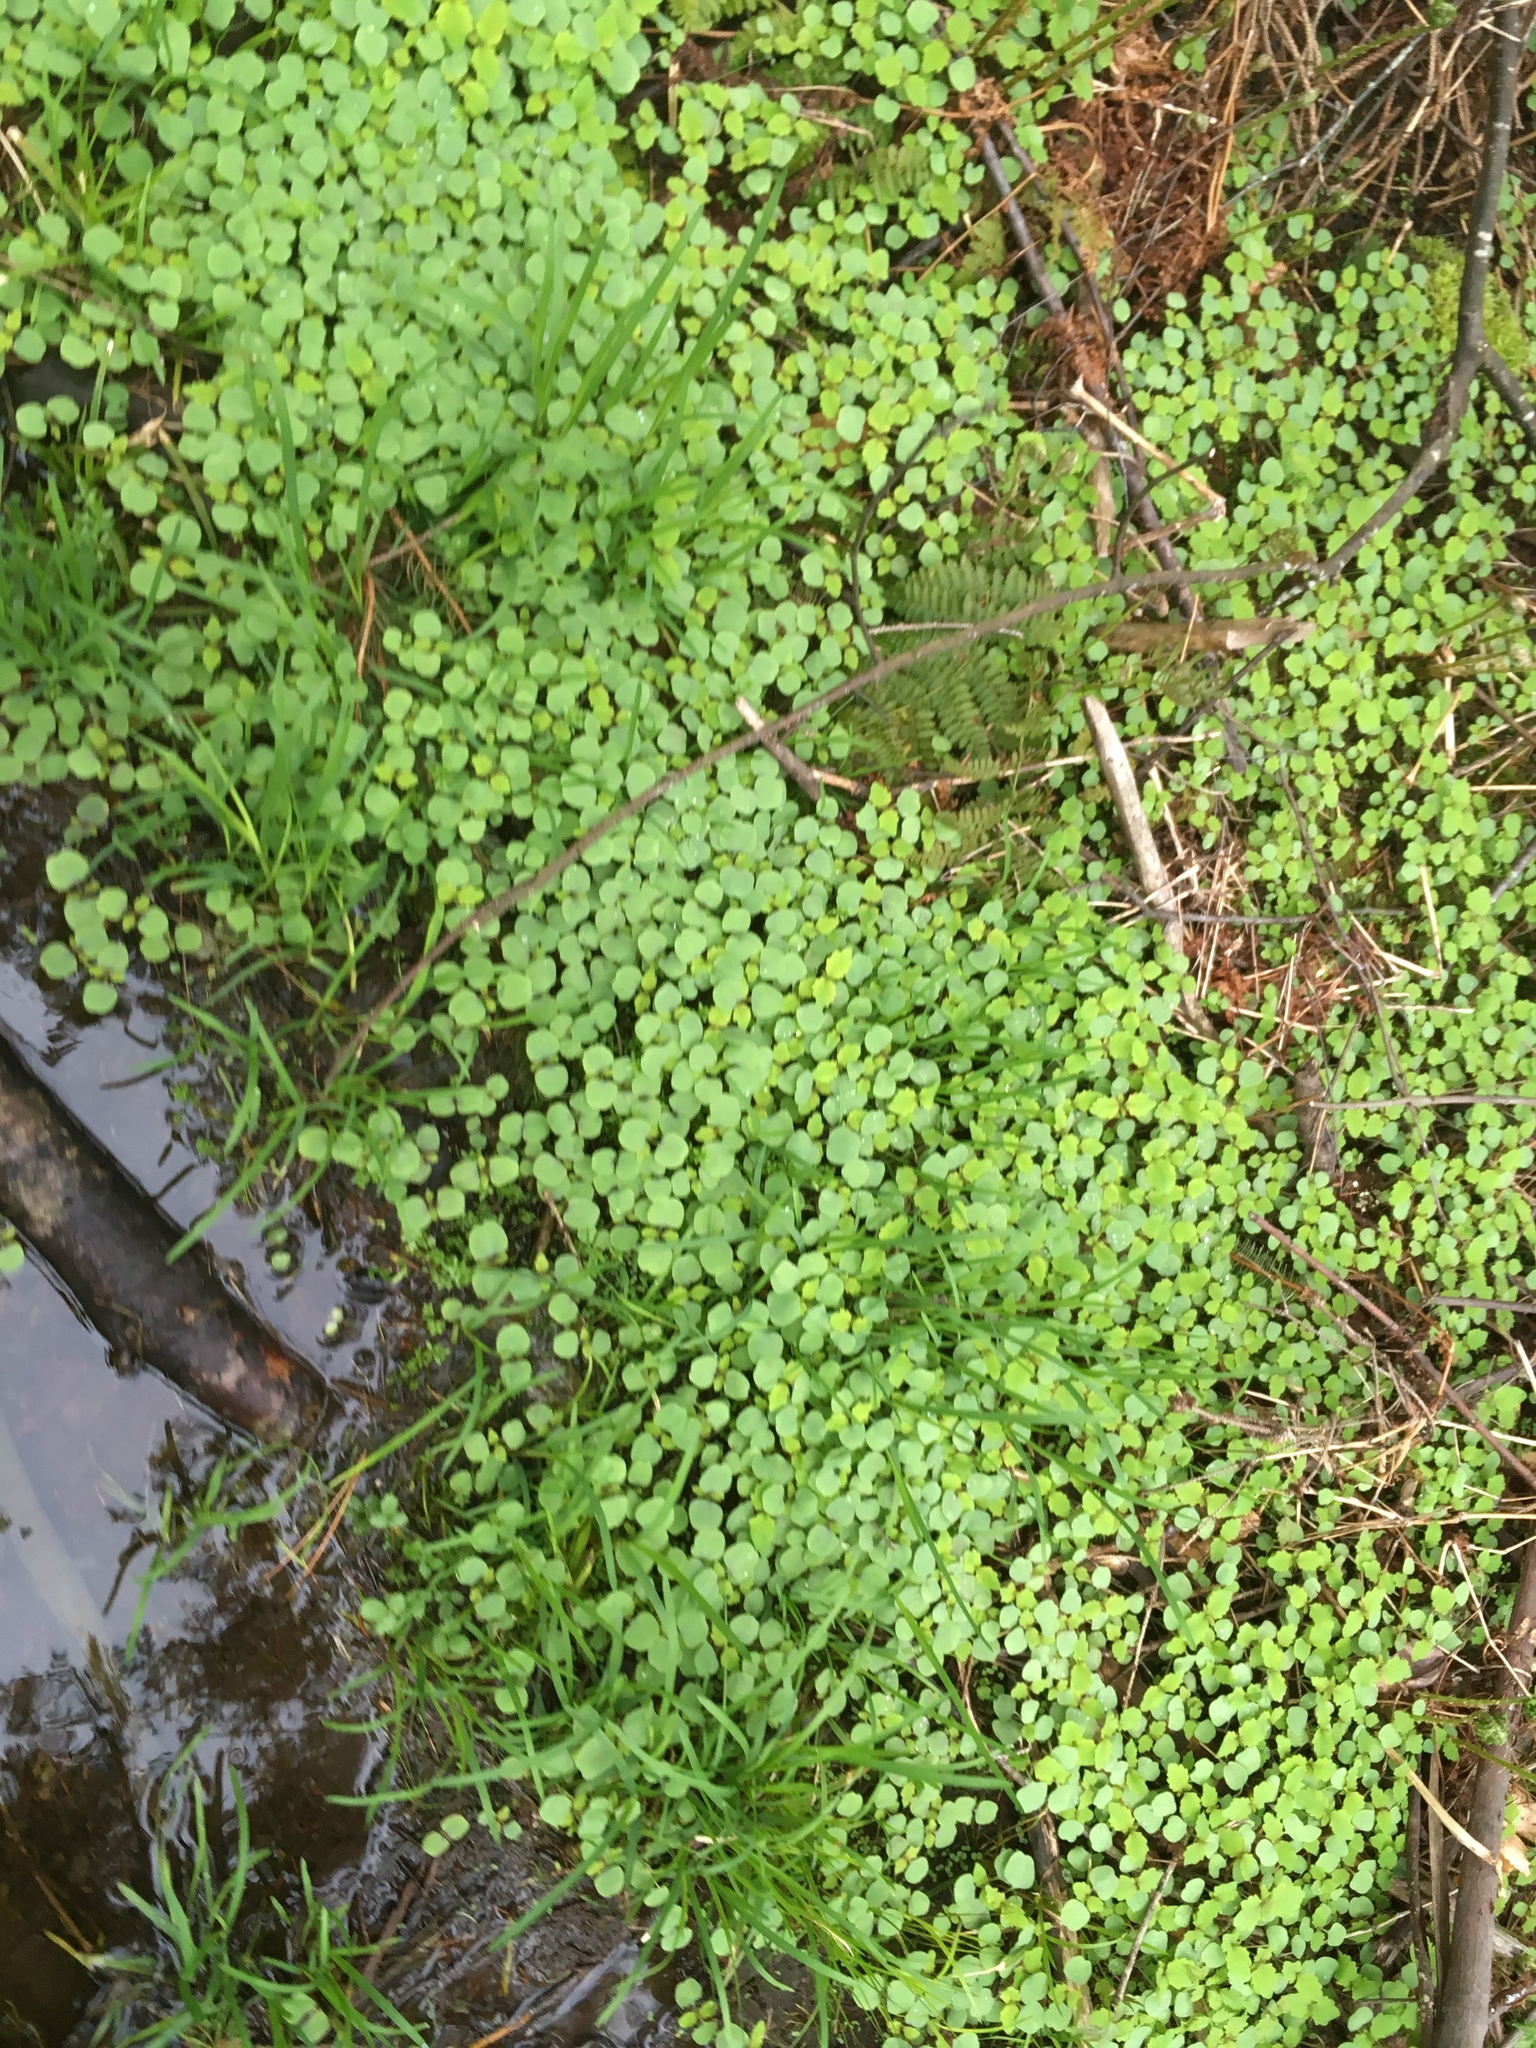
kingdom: Plantae
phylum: Tracheophyta
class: Magnoliopsida
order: Ericales
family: Balsaminaceae
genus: Impatiens
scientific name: Impatiens capensis
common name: Orange balsam
